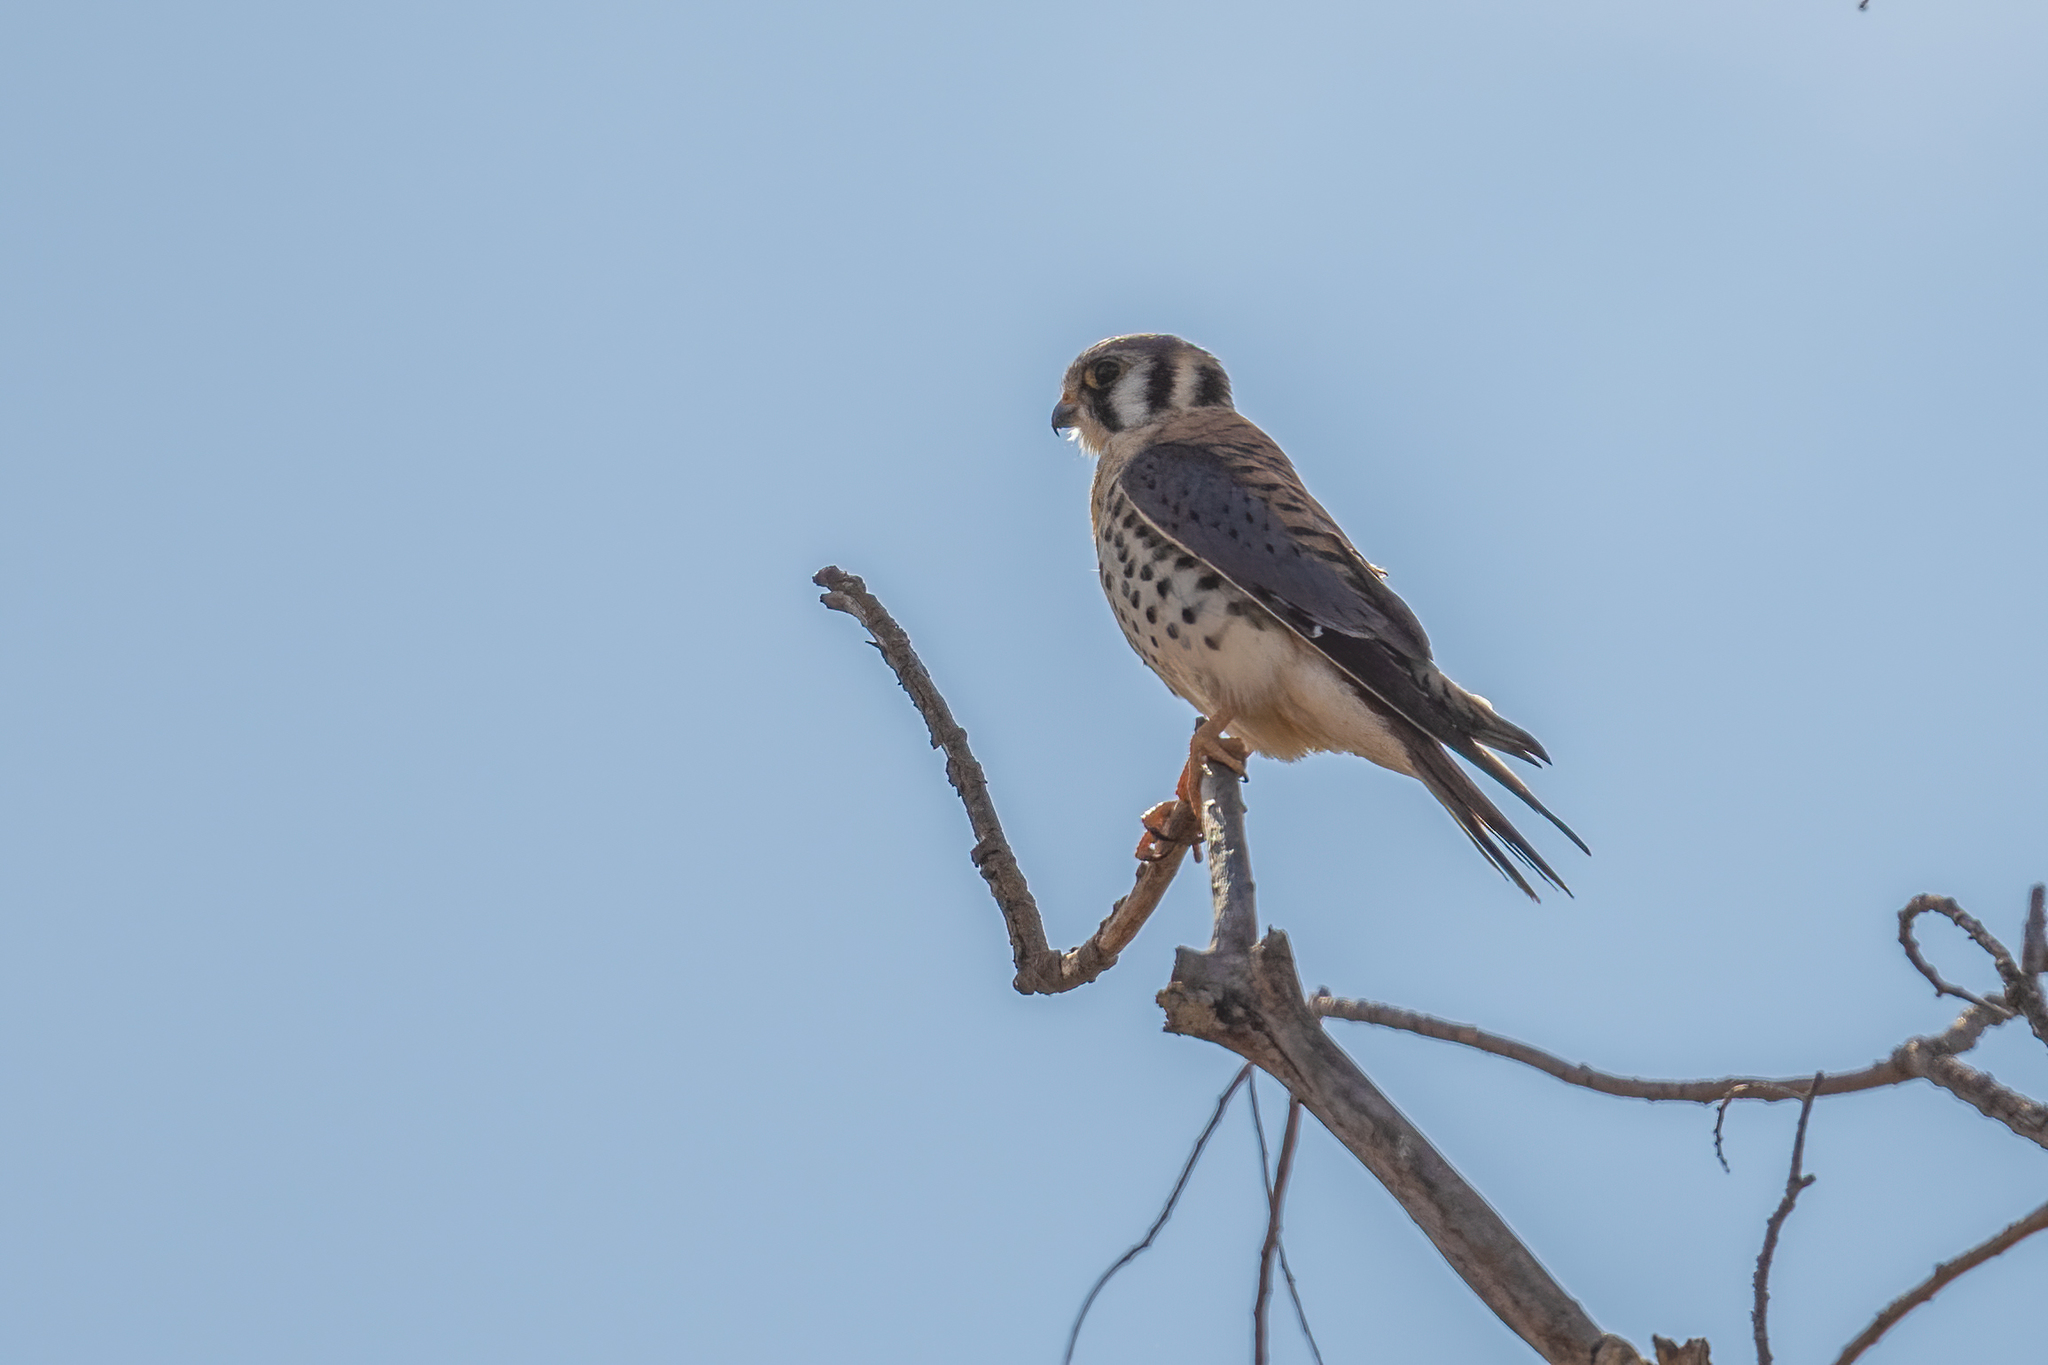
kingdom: Animalia
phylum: Chordata
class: Aves
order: Falconiformes
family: Falconidae
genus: Falco
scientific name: Falco sparverius
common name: American kestrel
